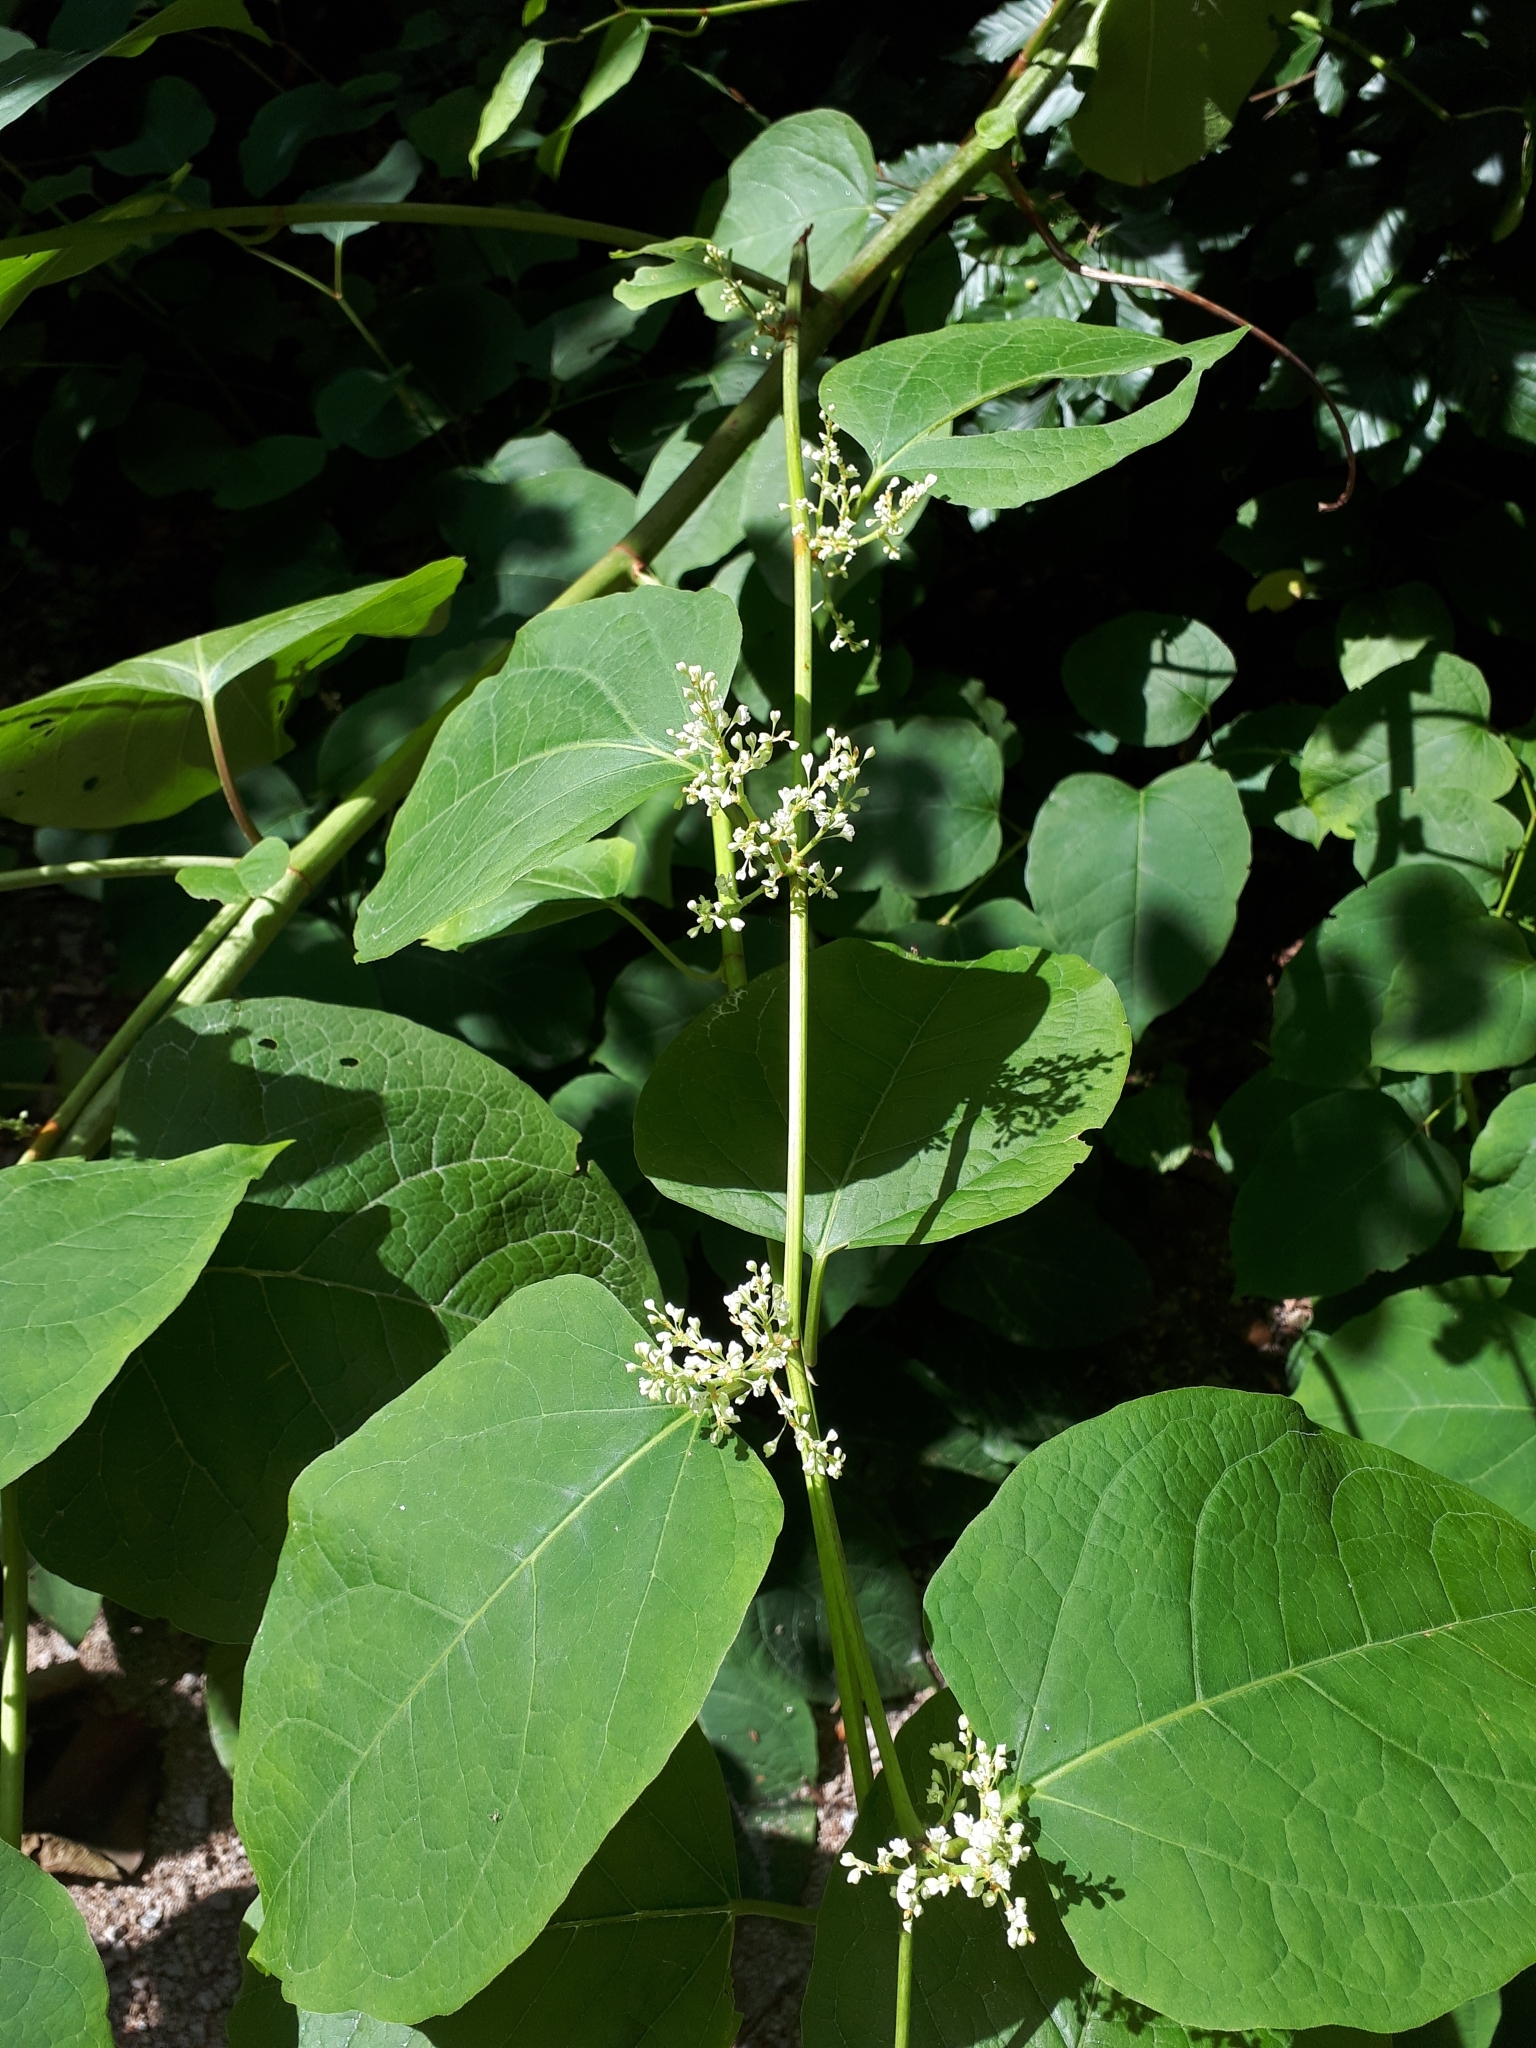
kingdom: Plantae
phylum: Tracheophyta
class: Magnoliopsida
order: Caryophyllales
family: Polygonaceae
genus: Reynoutria
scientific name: Reynoutria japonica
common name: Japanese knotweed
